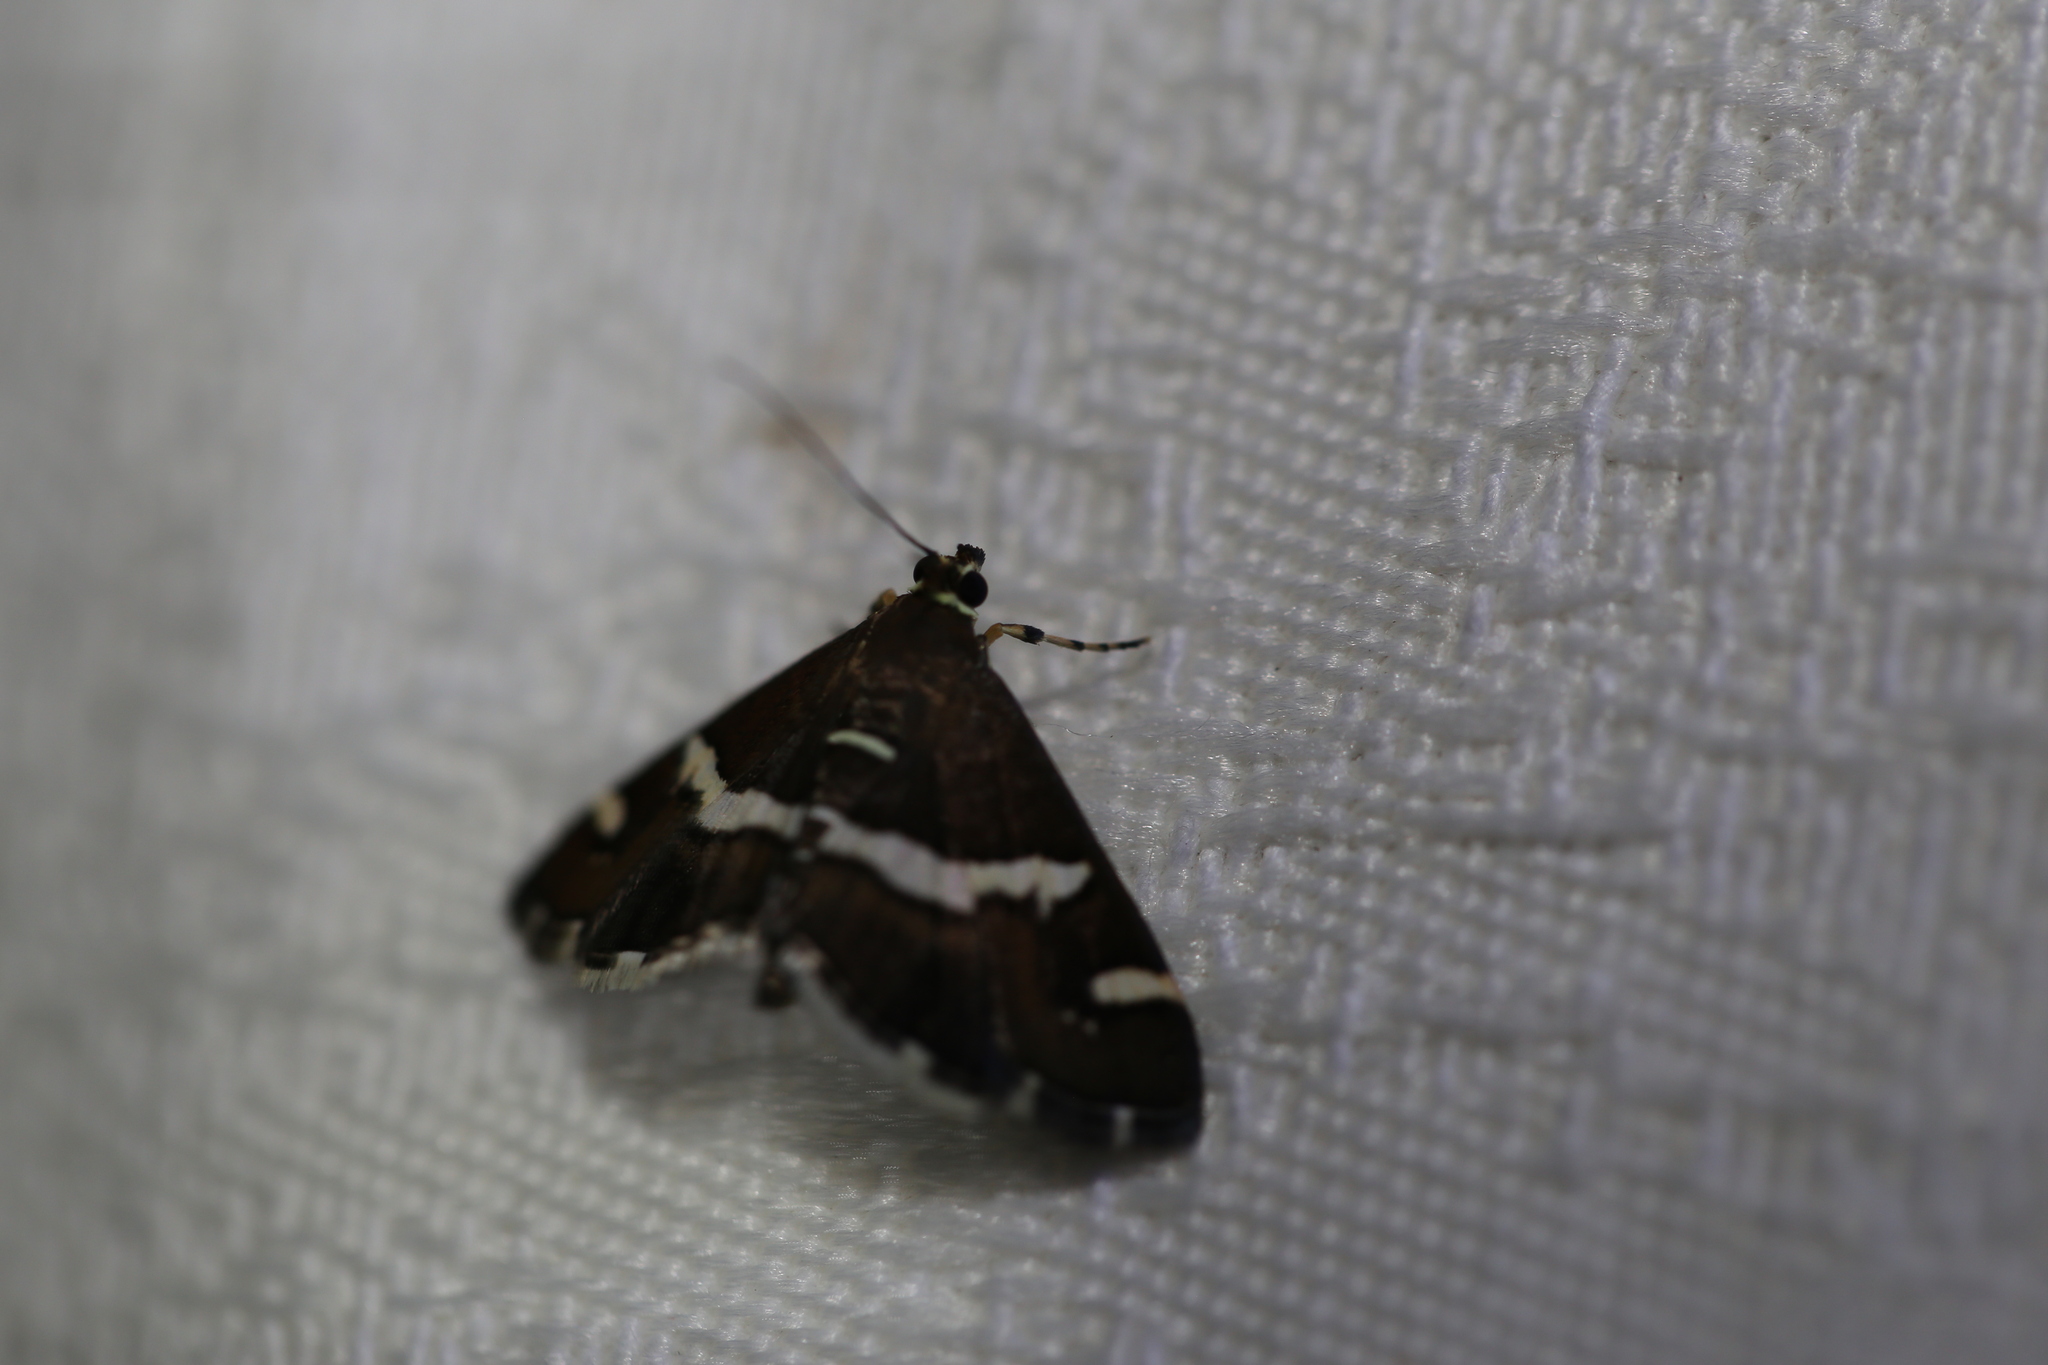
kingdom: Animalia
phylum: Arthropoda
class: Insecta
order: Lepidoptera
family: Crambidae
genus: Spoladea
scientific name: Spoladea recurvalis
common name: Beet webworm moth
